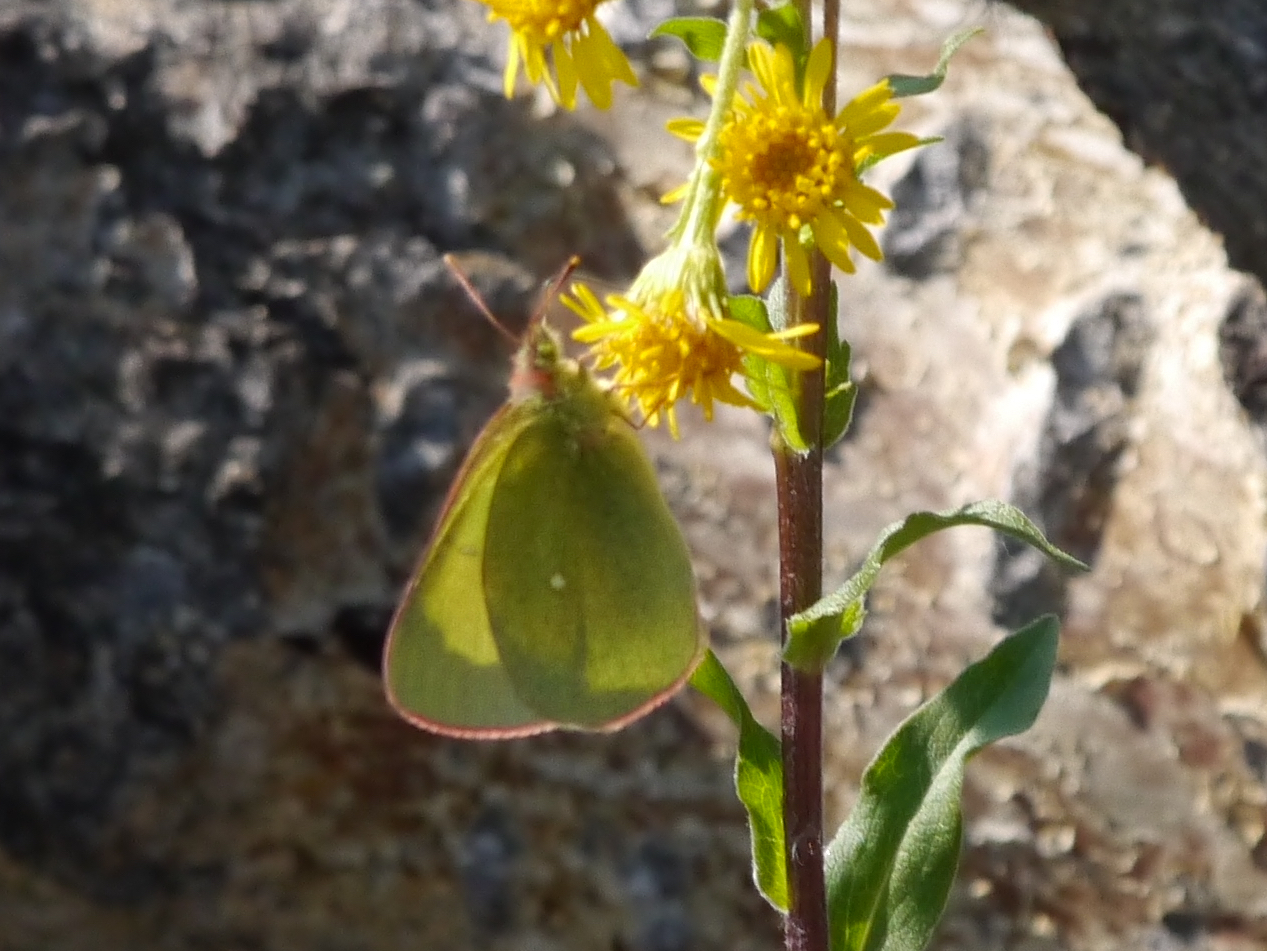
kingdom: Animalia
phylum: Arthropoda
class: Insecta
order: Lepidoptera
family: Pieridae
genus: Colias
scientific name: Colias palaeno
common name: Moorland clouded yellow
